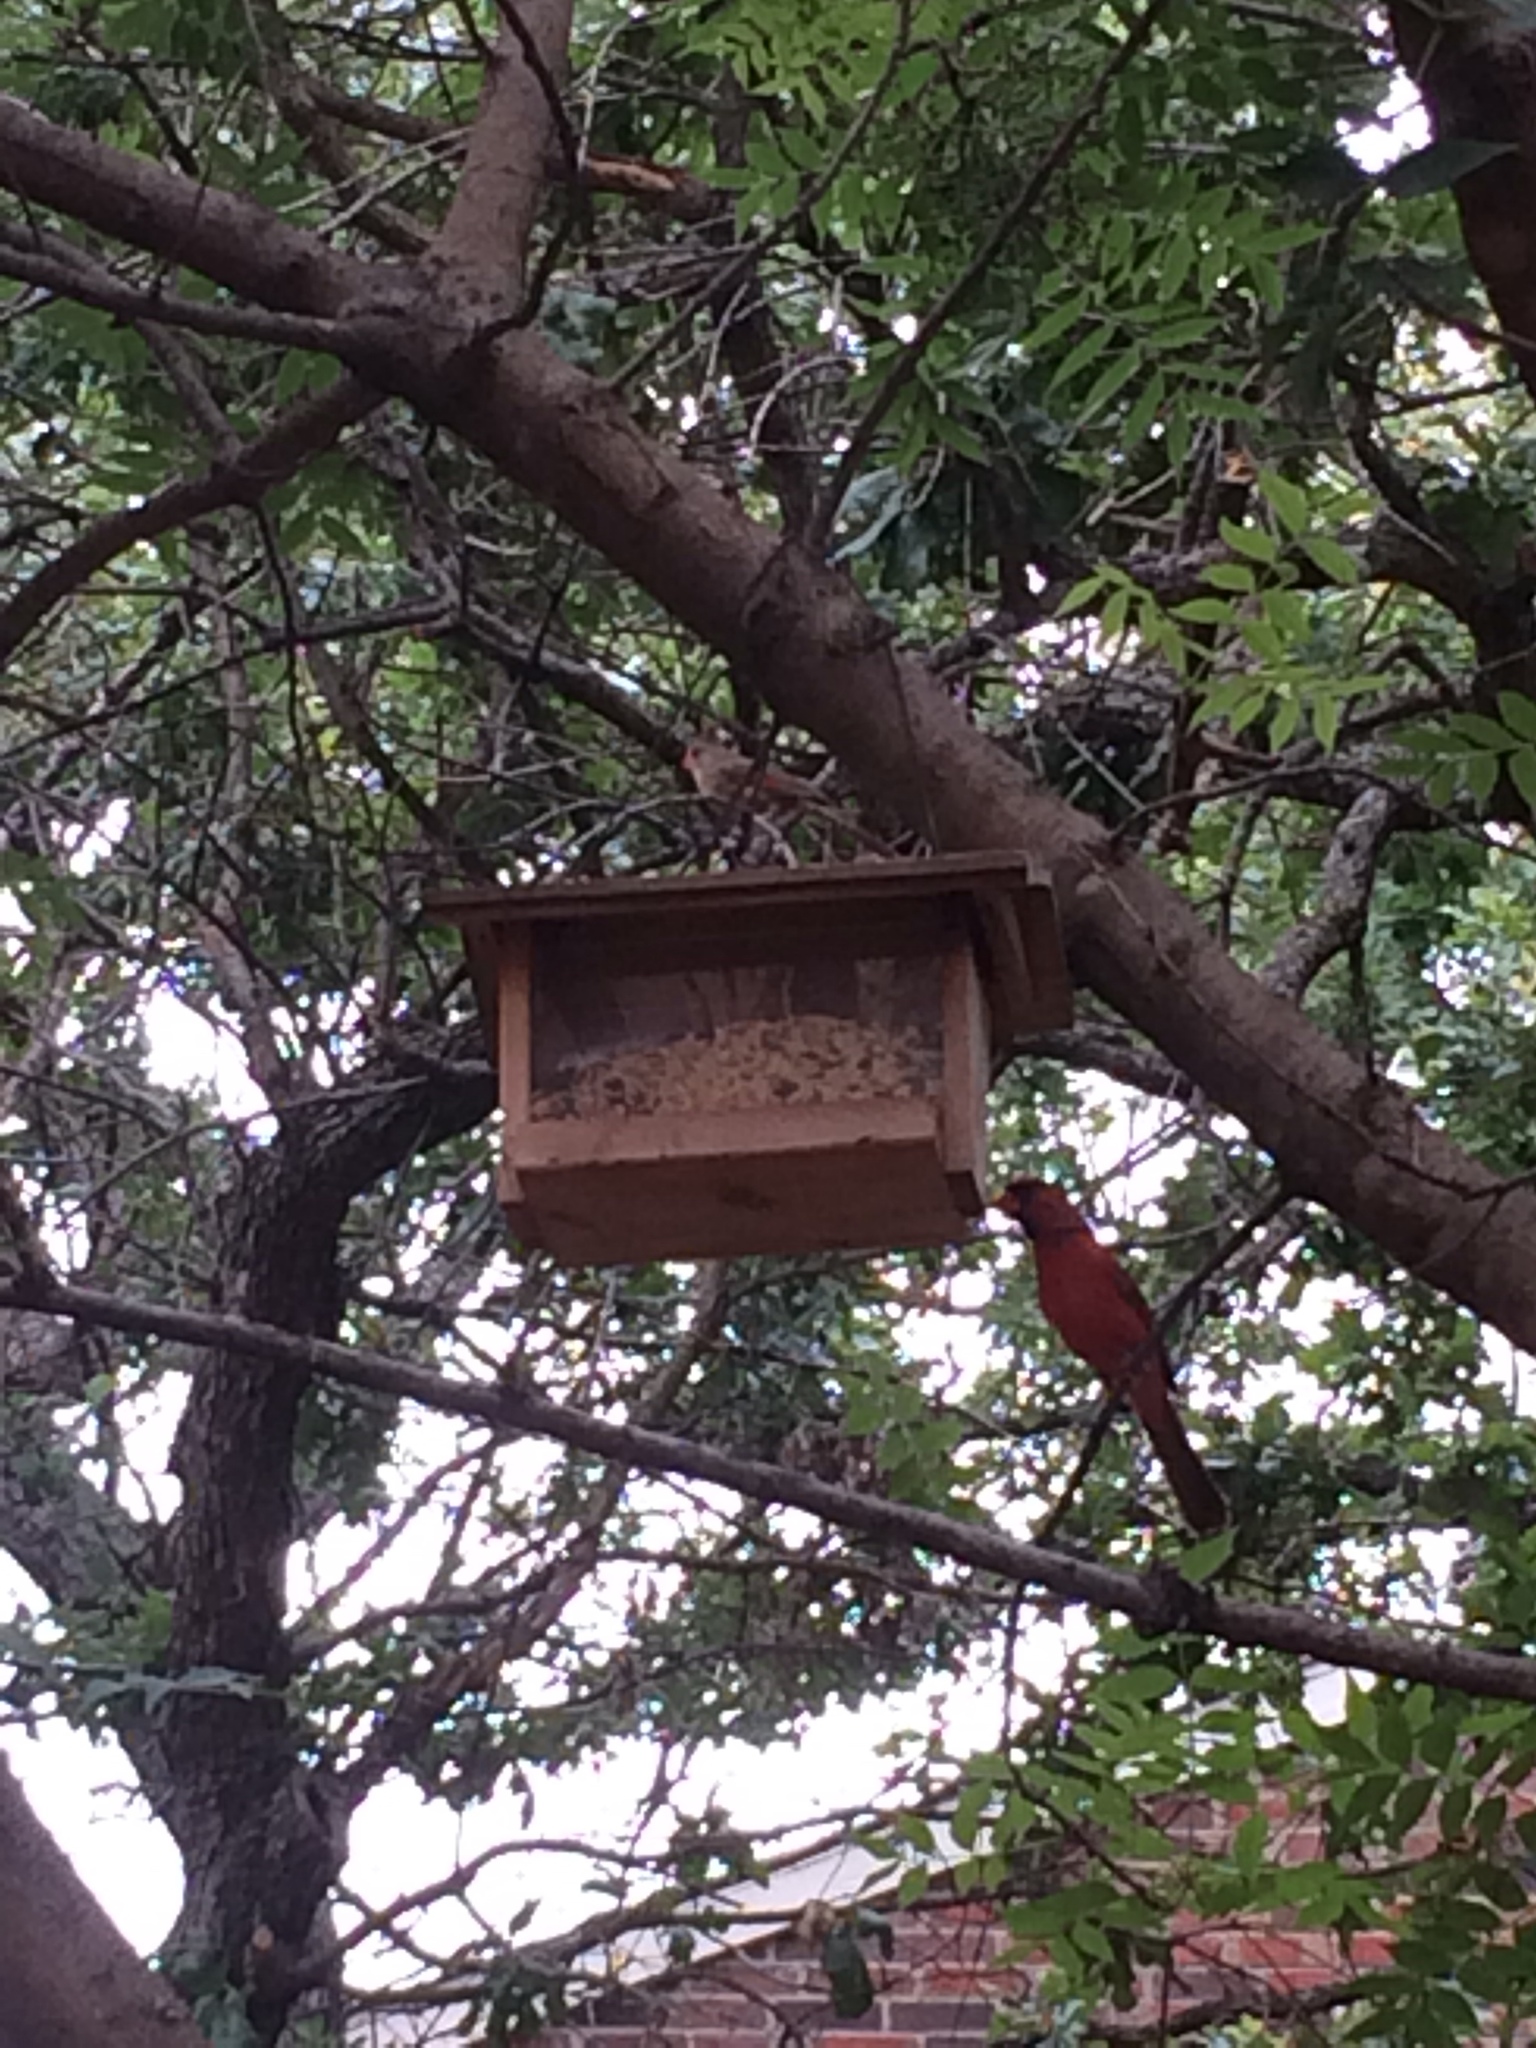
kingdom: Animalia
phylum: Chordata
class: Aves
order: Passeriformes
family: Cardinalidae
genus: Cardinalis
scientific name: Cardinalis cardinalis
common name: Northern cardinal
